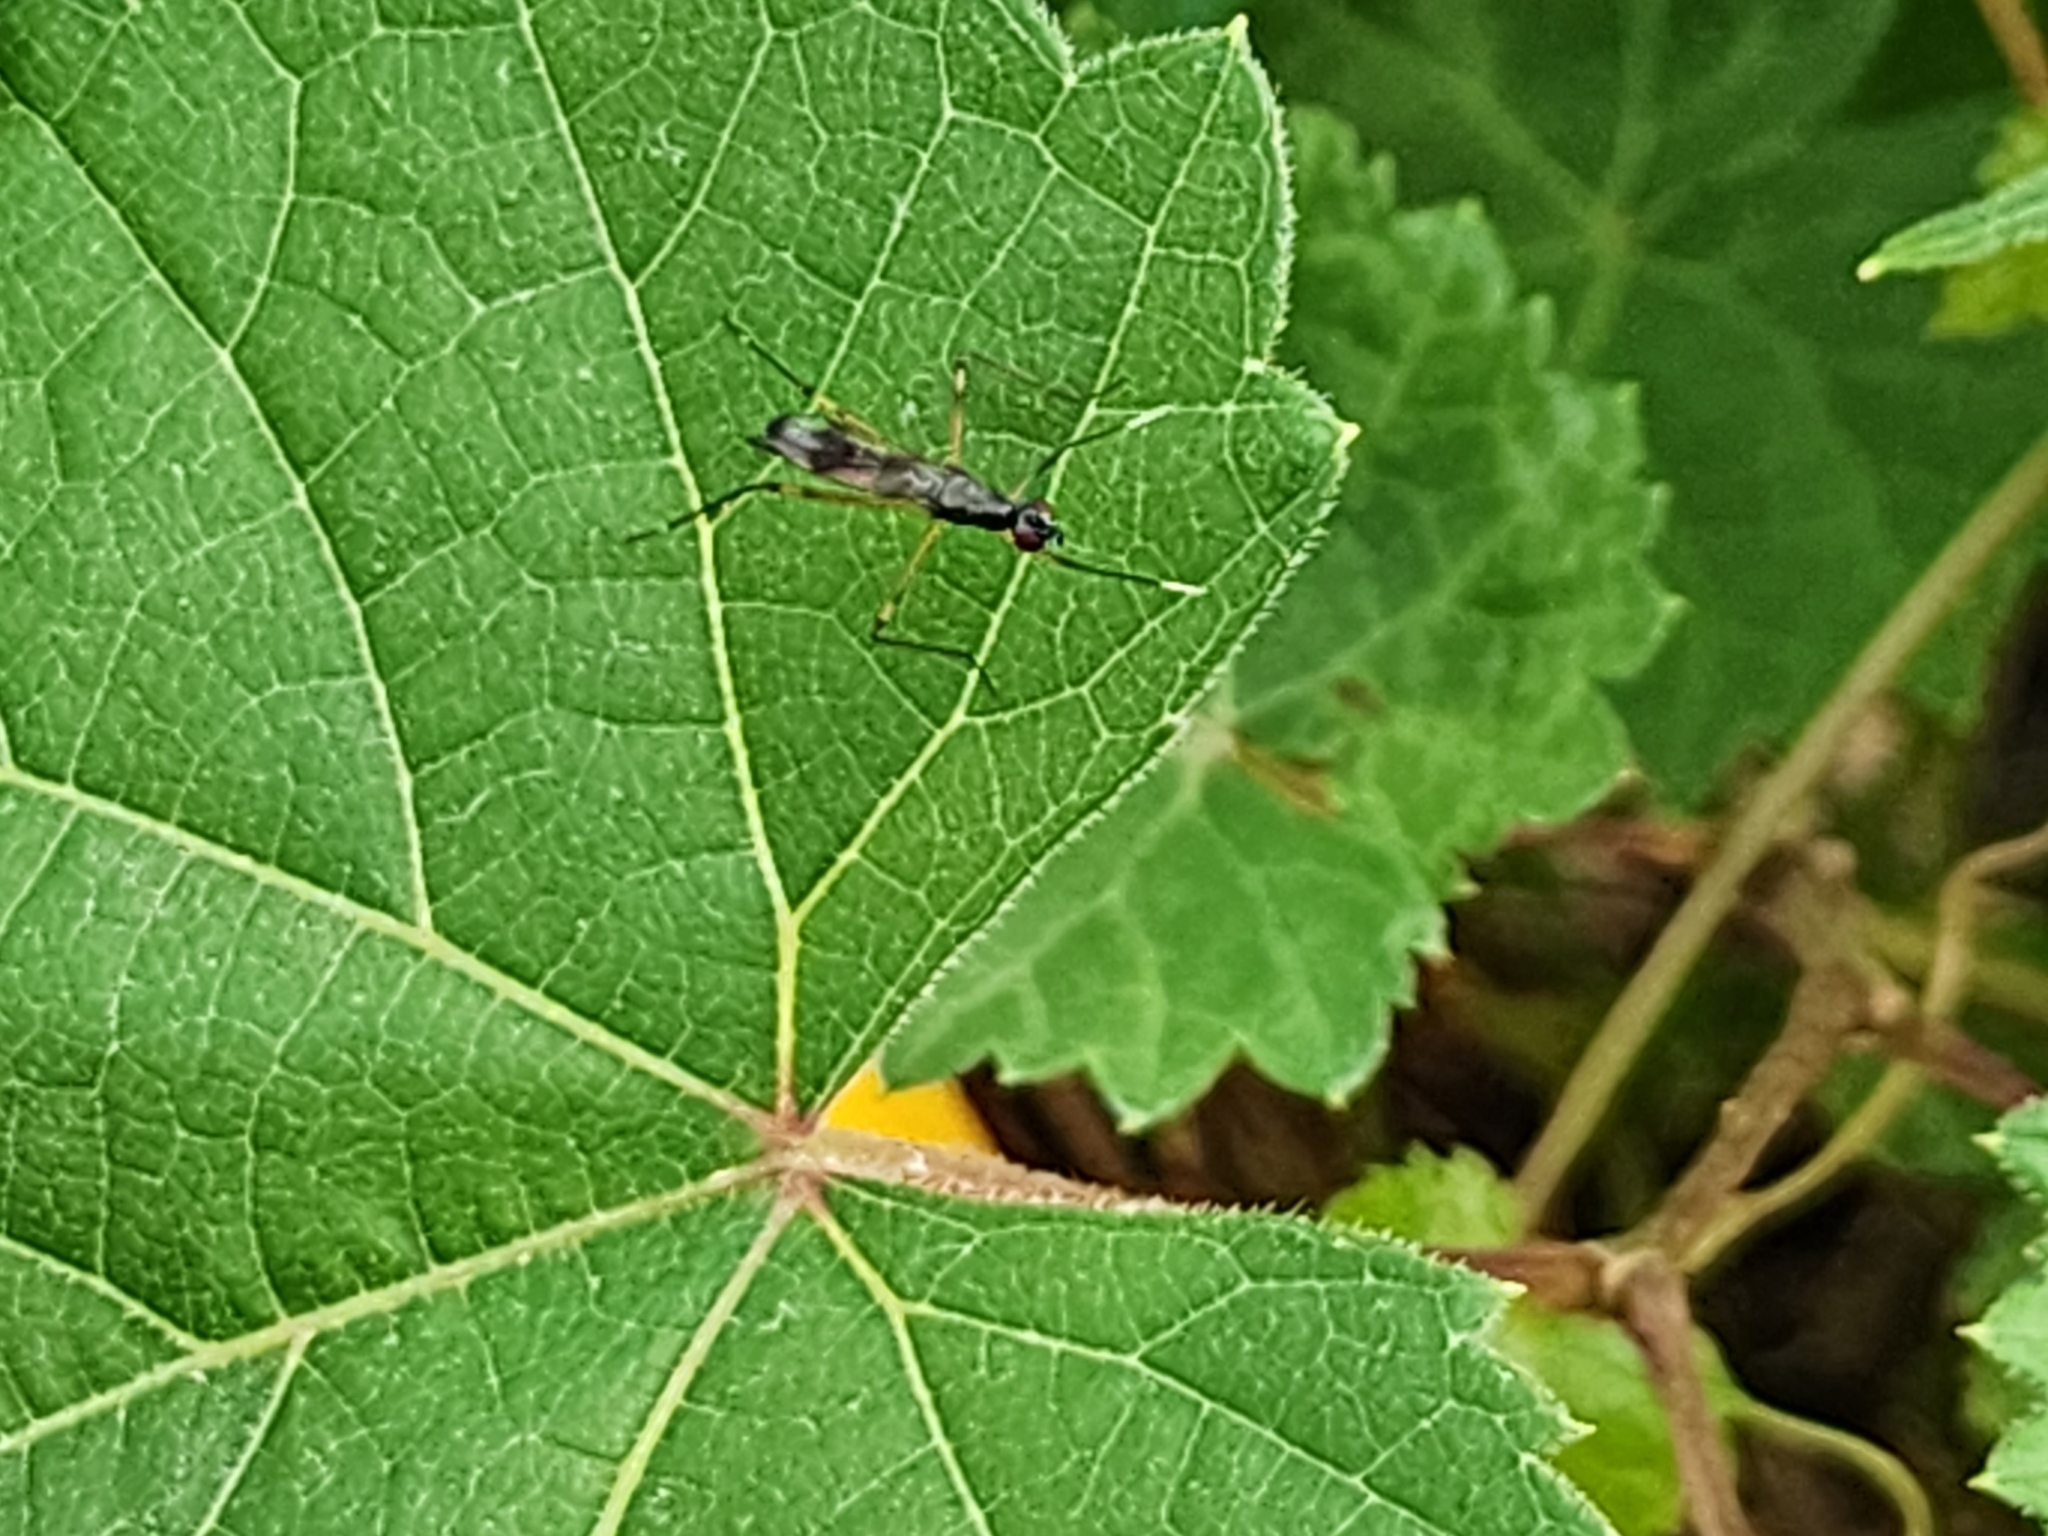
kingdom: Animalia
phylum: Arthropoda
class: Insecta
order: Diptera
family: Micropezidae
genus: Rainieria
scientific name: Rainieria antennaepes
